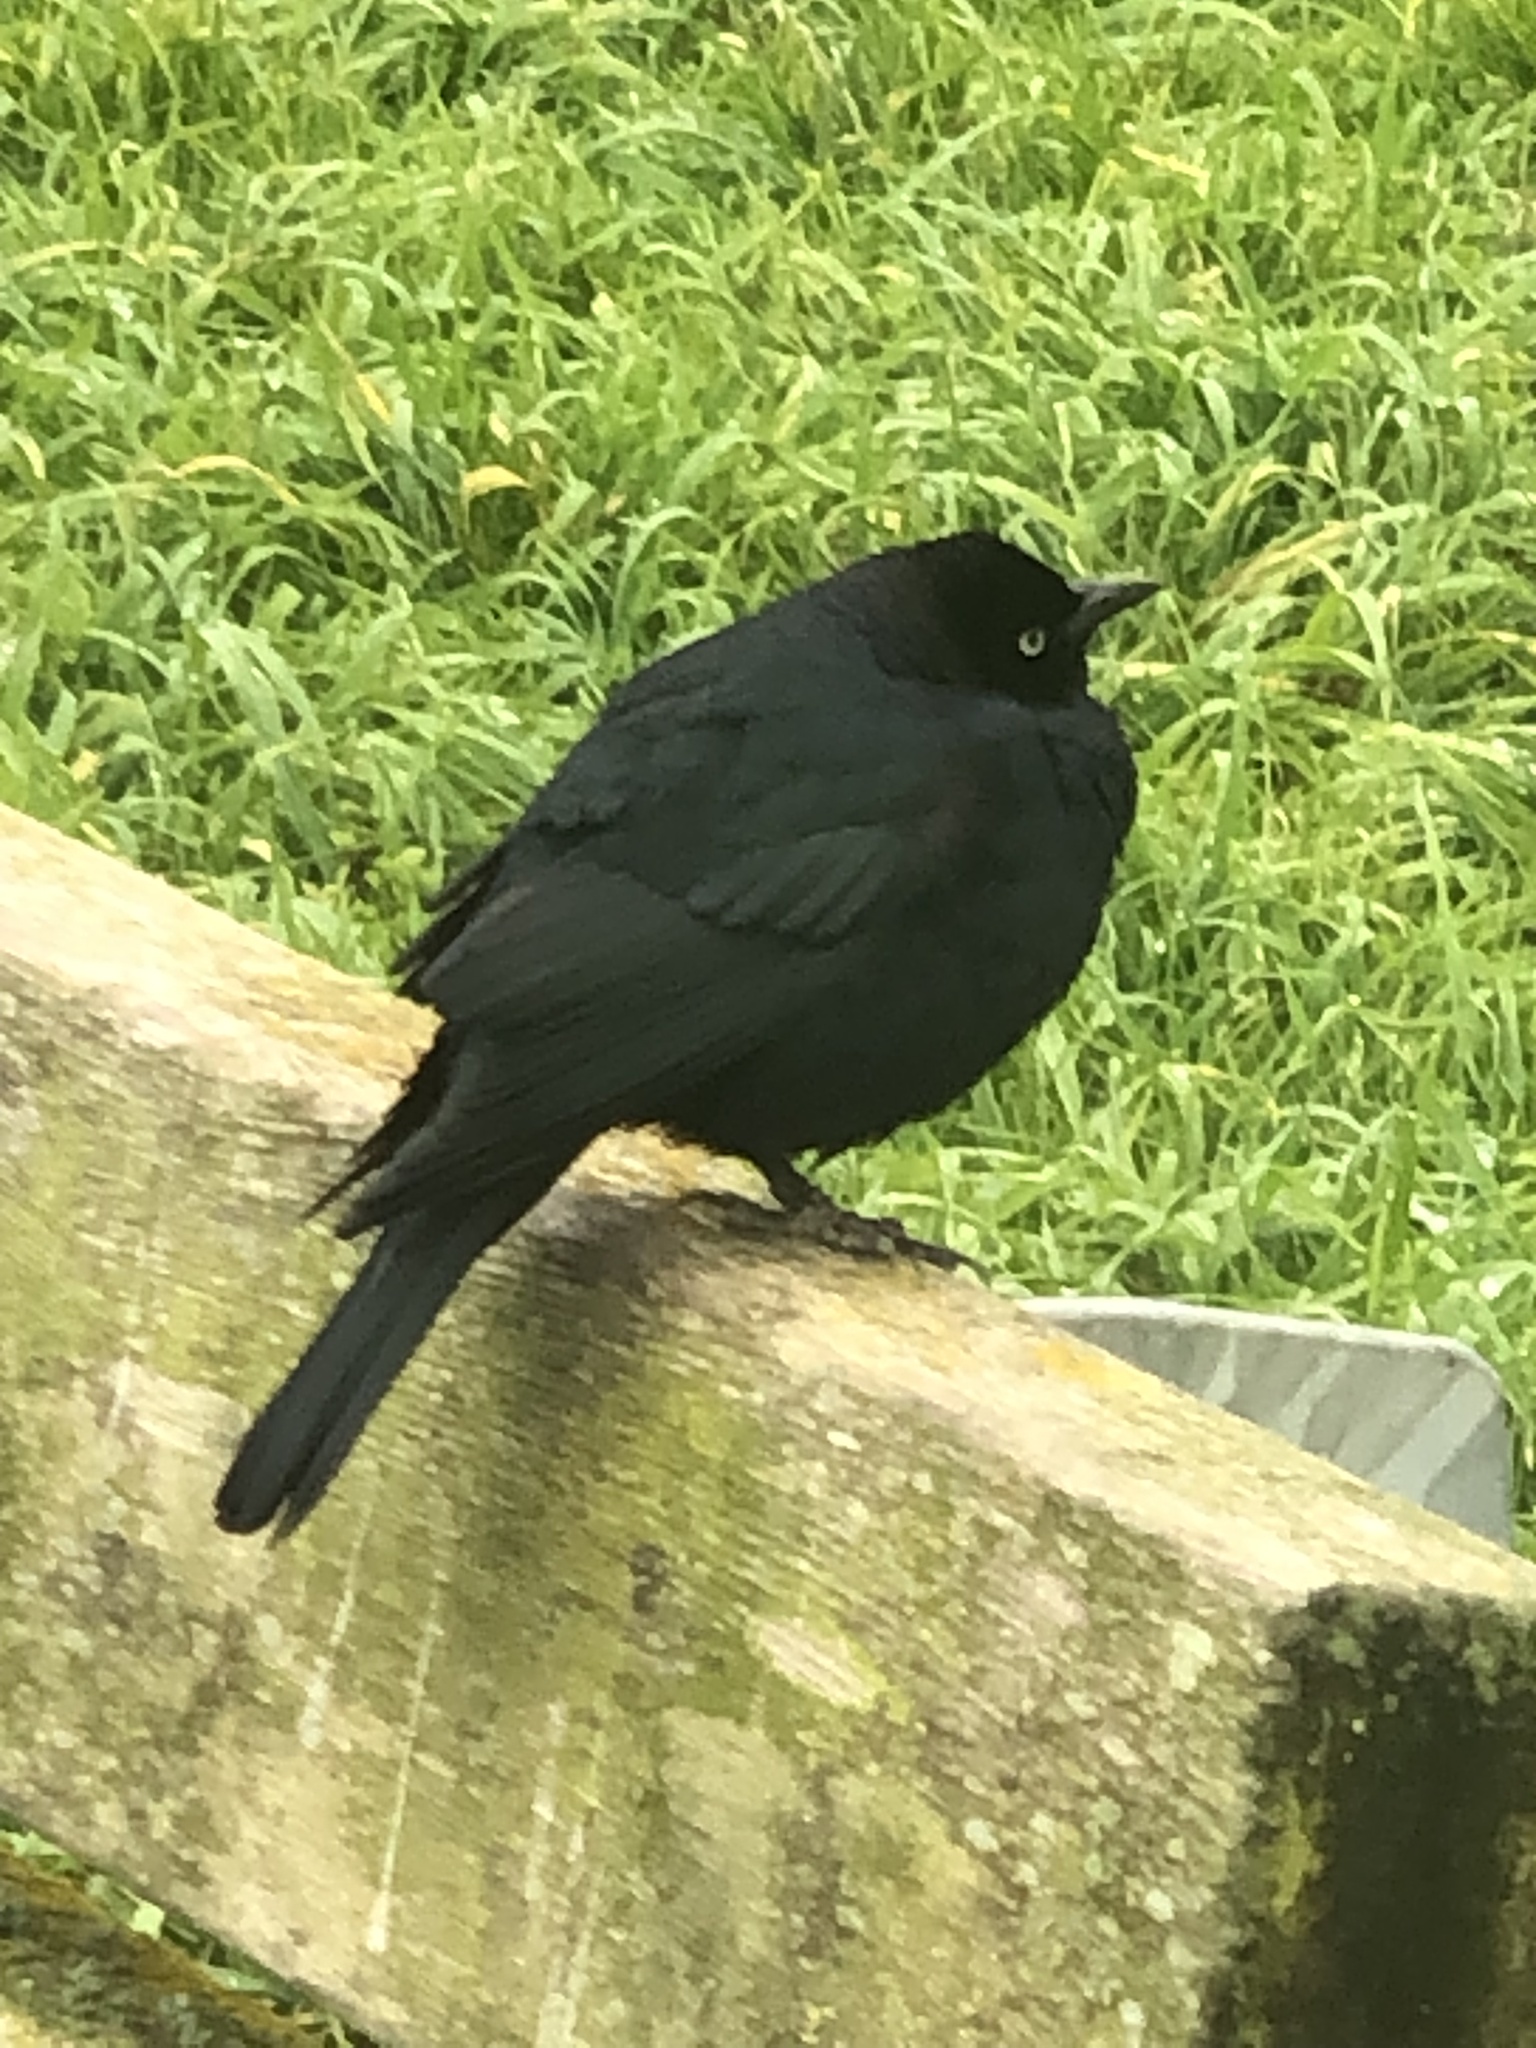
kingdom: Animalia
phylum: Chordata
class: Aves
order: Passeriformes
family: Icteridae
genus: Euphagus
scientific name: Euphagus cyanocephalus
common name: Brewer's blackbird
